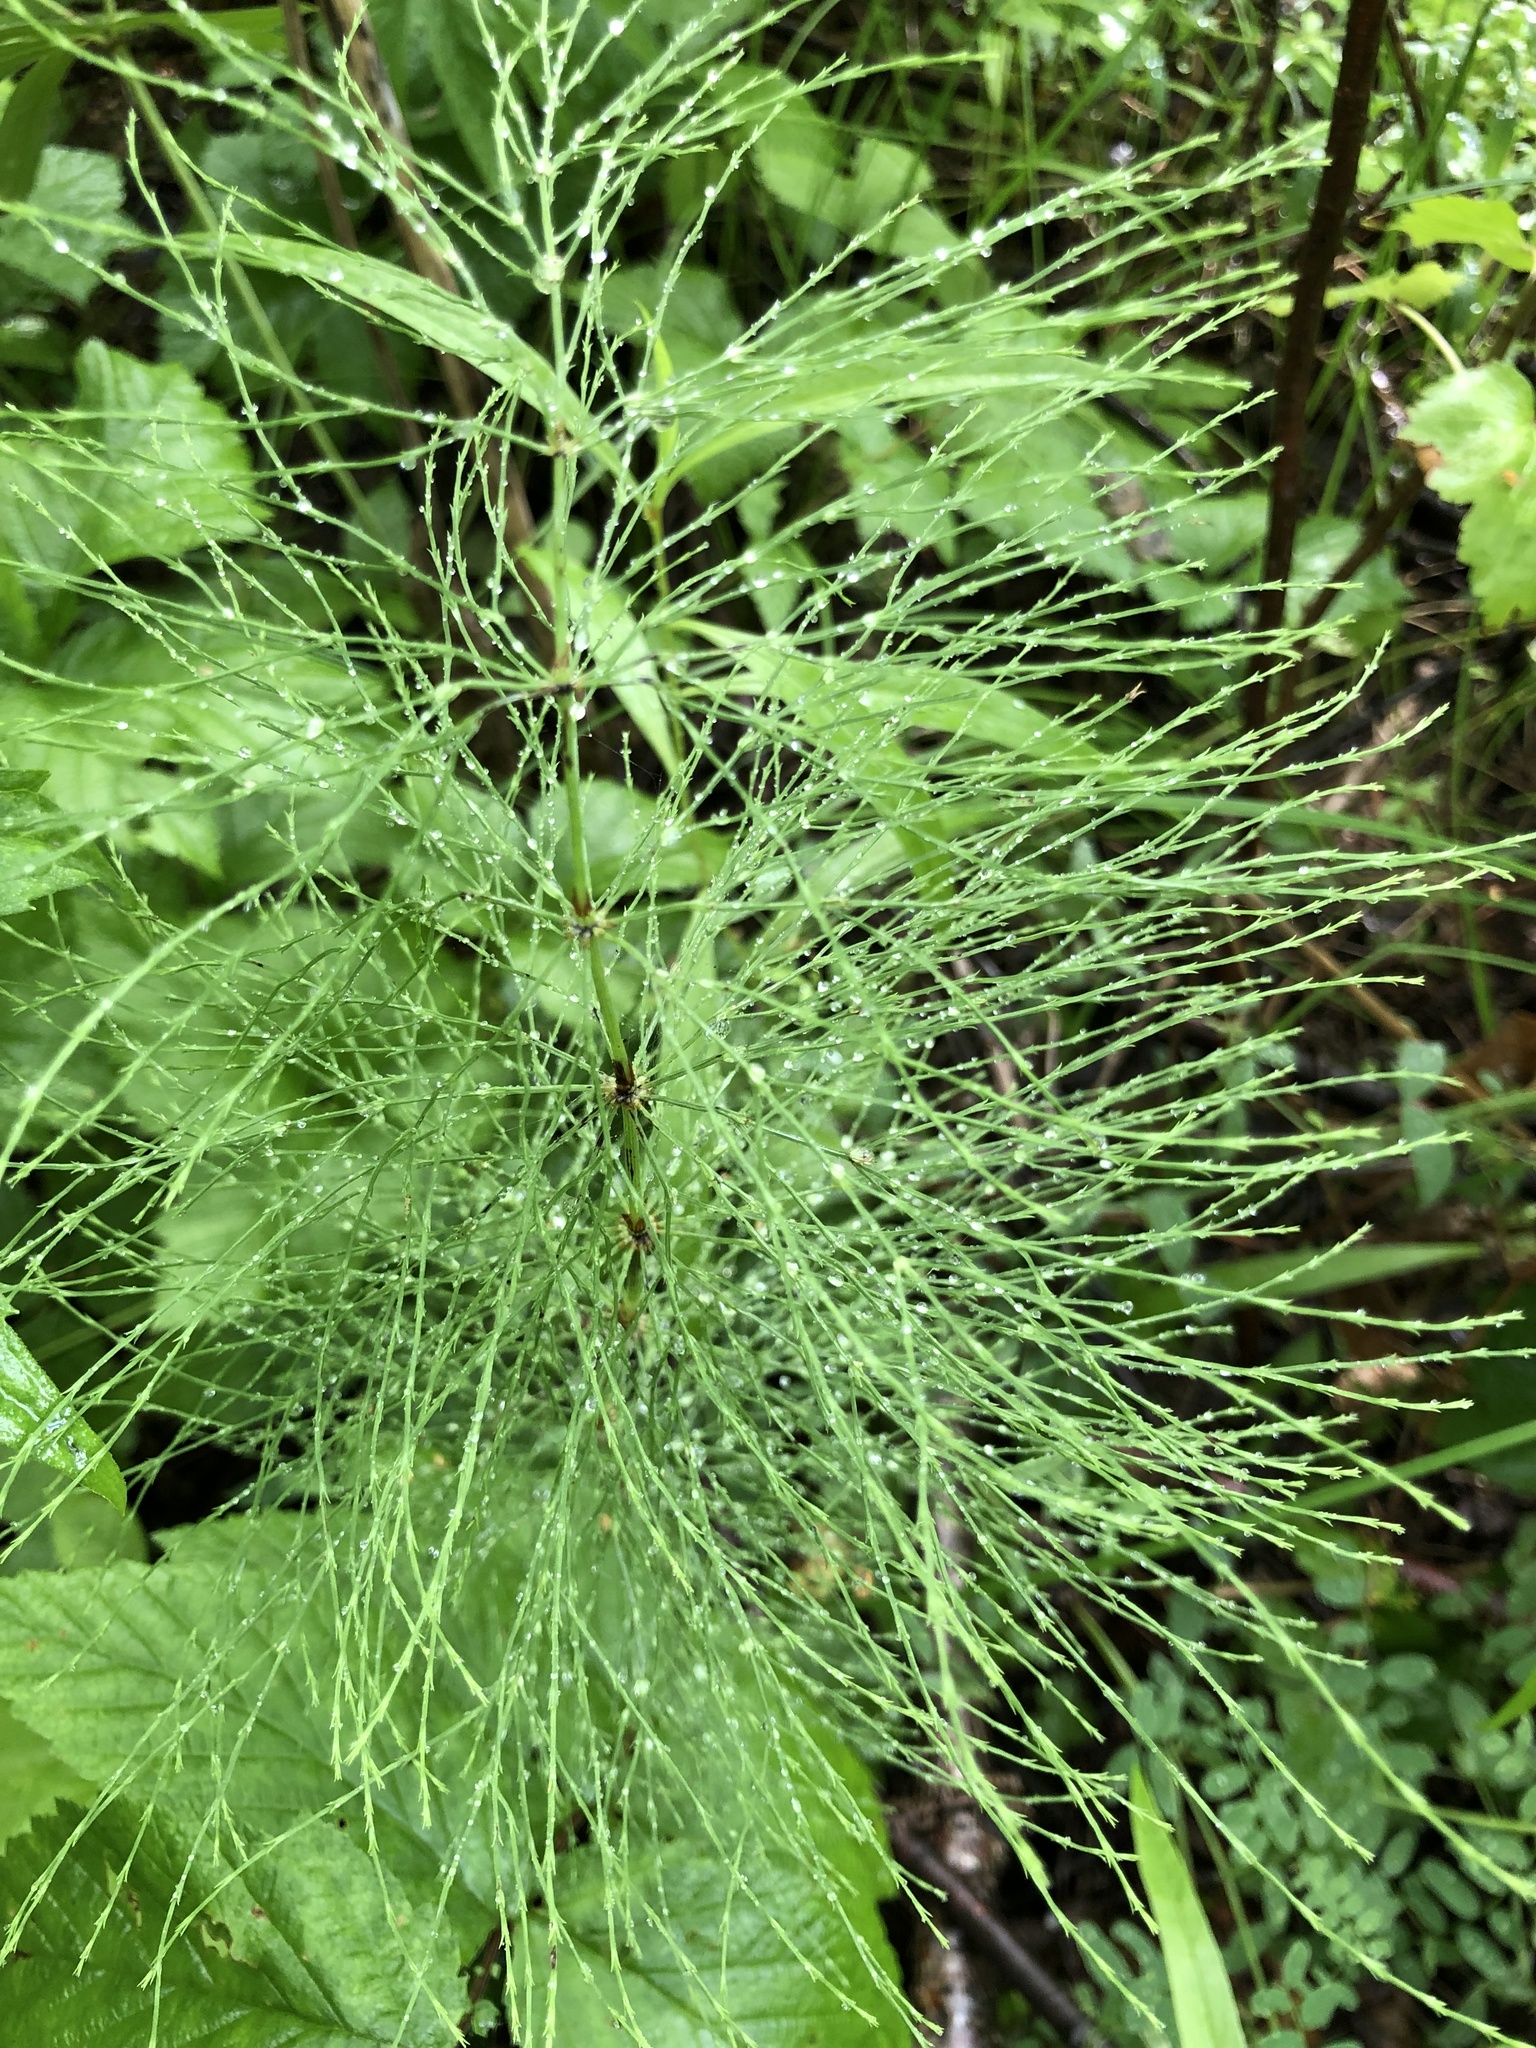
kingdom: Plantae
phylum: Tracheophyta
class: Polypodiopsida
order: Equisetales
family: Equisetaceae
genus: Equisetum
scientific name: Equisetum sylvaticum
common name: Wood horsetail
